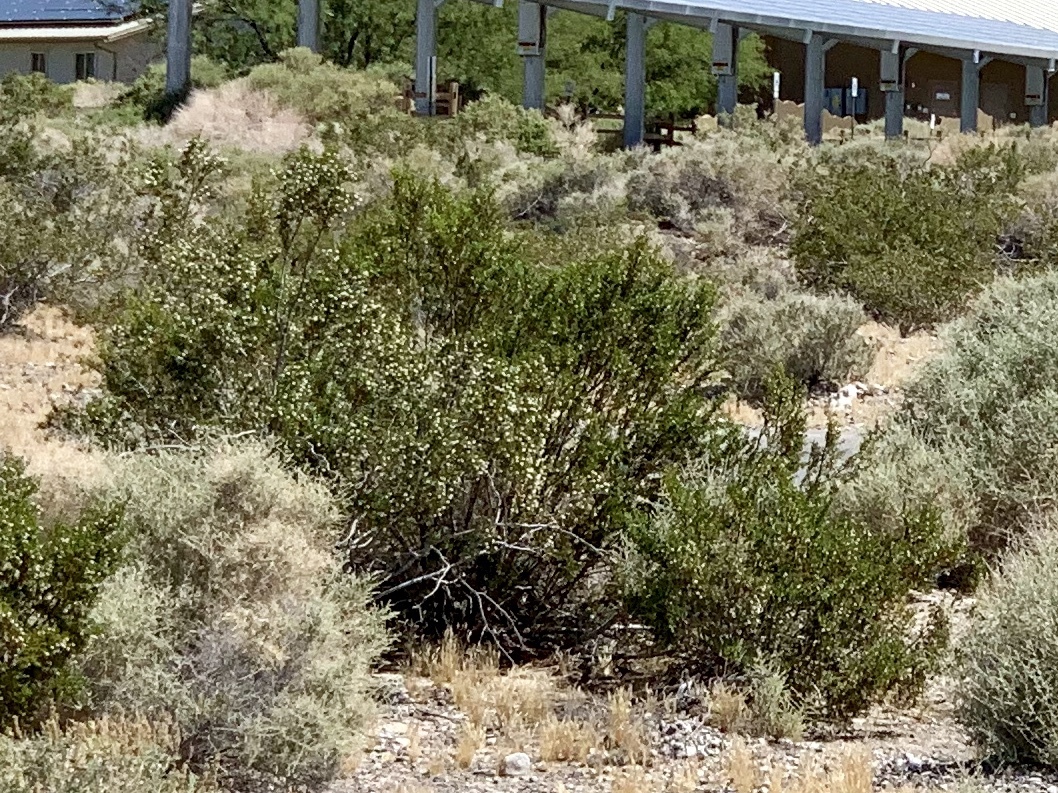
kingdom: Plantae
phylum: Tracheophyta
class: Magnoliopsida
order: Zygophyllales
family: Zygophyllaceae
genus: Larrea
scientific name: Larrea tridentata
